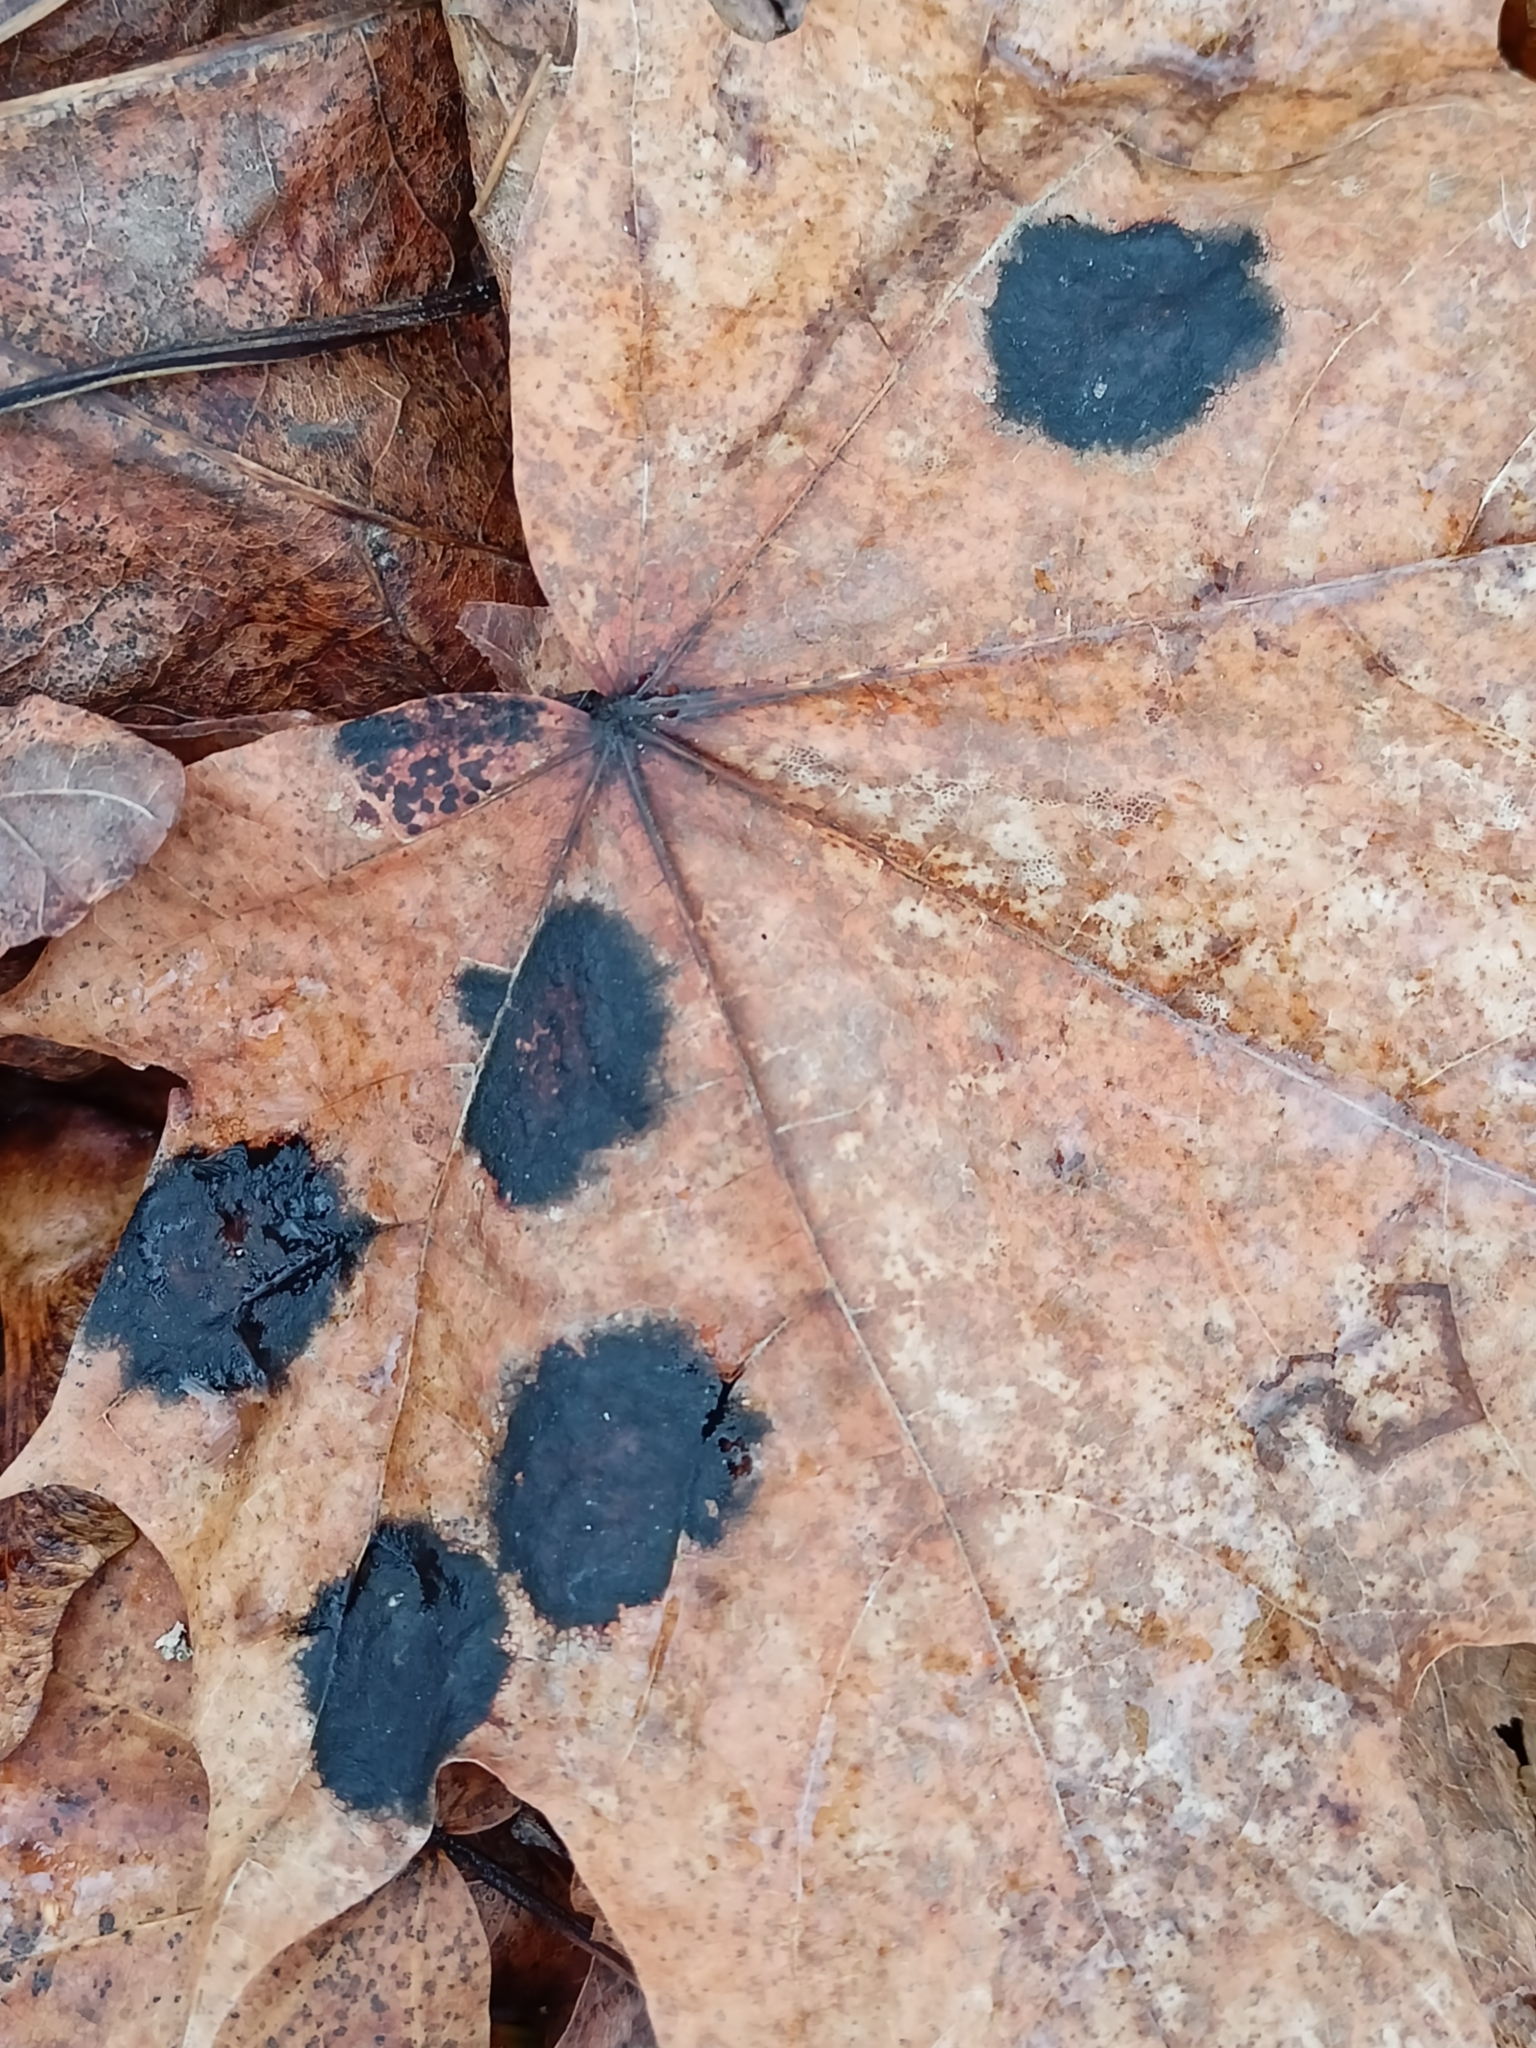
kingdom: Fungi
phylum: Ascomycota
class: Leotiomycetes
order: Rhytismatales
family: Rhytismataceae
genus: Rhytisma
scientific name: Rhytisma acerinum
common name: European tar spot
